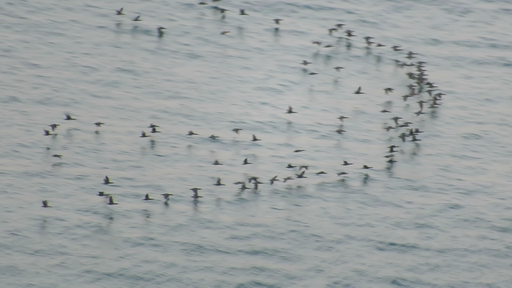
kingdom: Animalia
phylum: Chordata
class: Aves
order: Suliformes
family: Phalacrocoracidae
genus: Phalacrocorax
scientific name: Phalacrocorax capensis
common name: Cape cormorant
